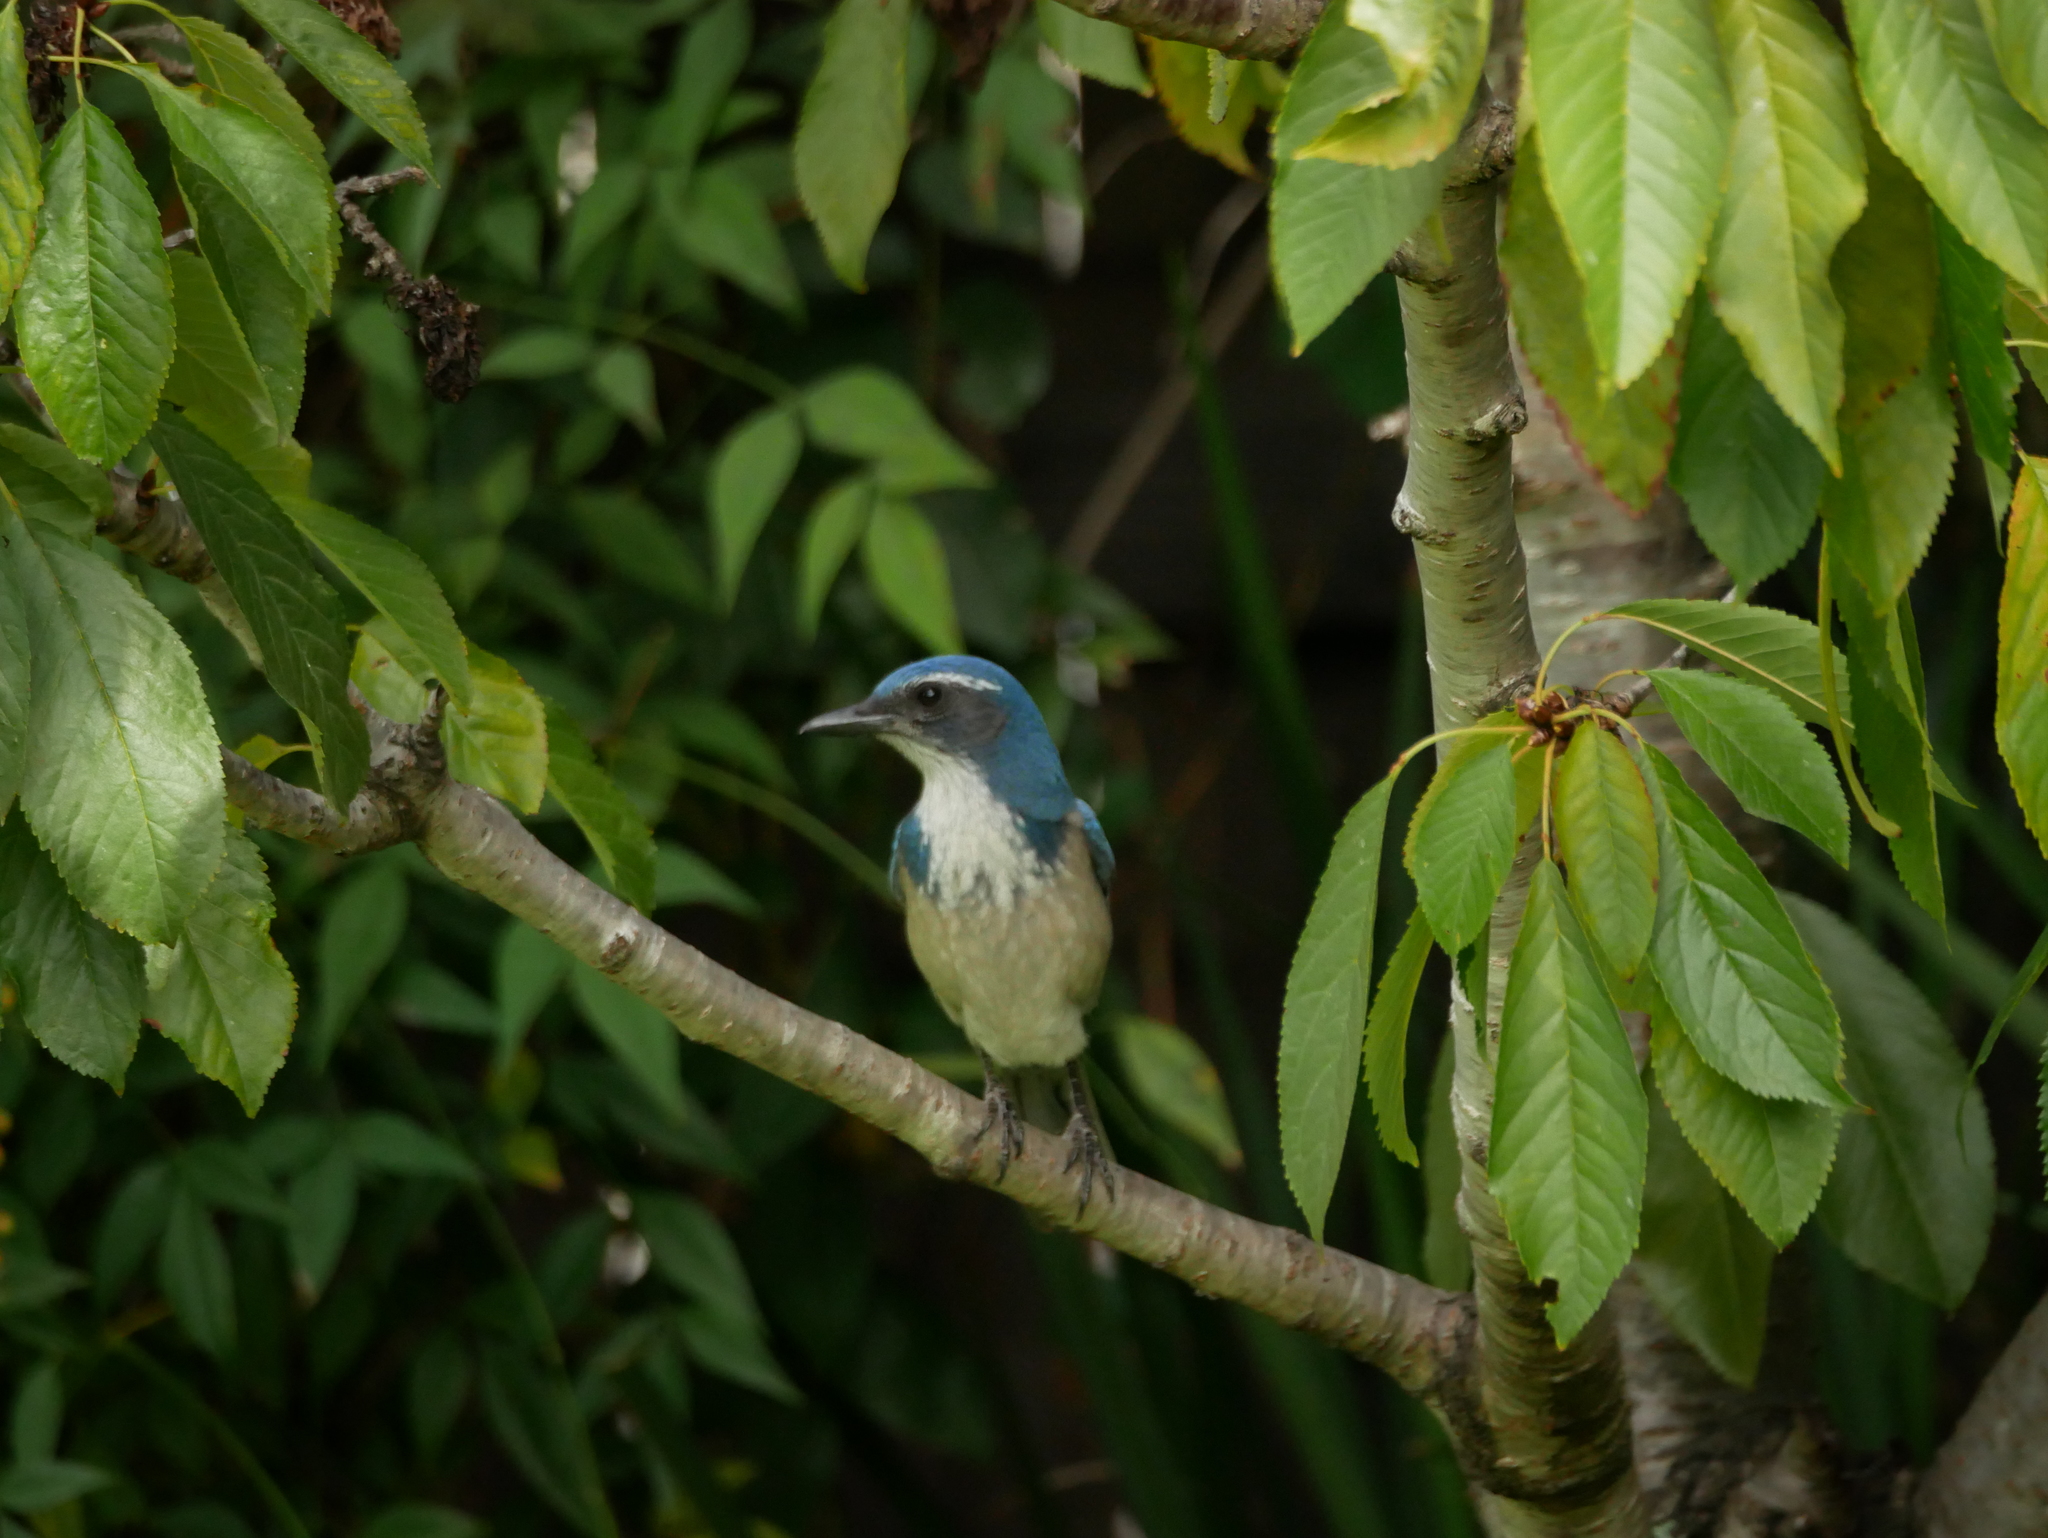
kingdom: Animalia
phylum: Chordata
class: Aves
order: Passeriformes
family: Corvidae
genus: Aphelocoma
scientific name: Aphelocoma californica
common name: California scrub-jay
